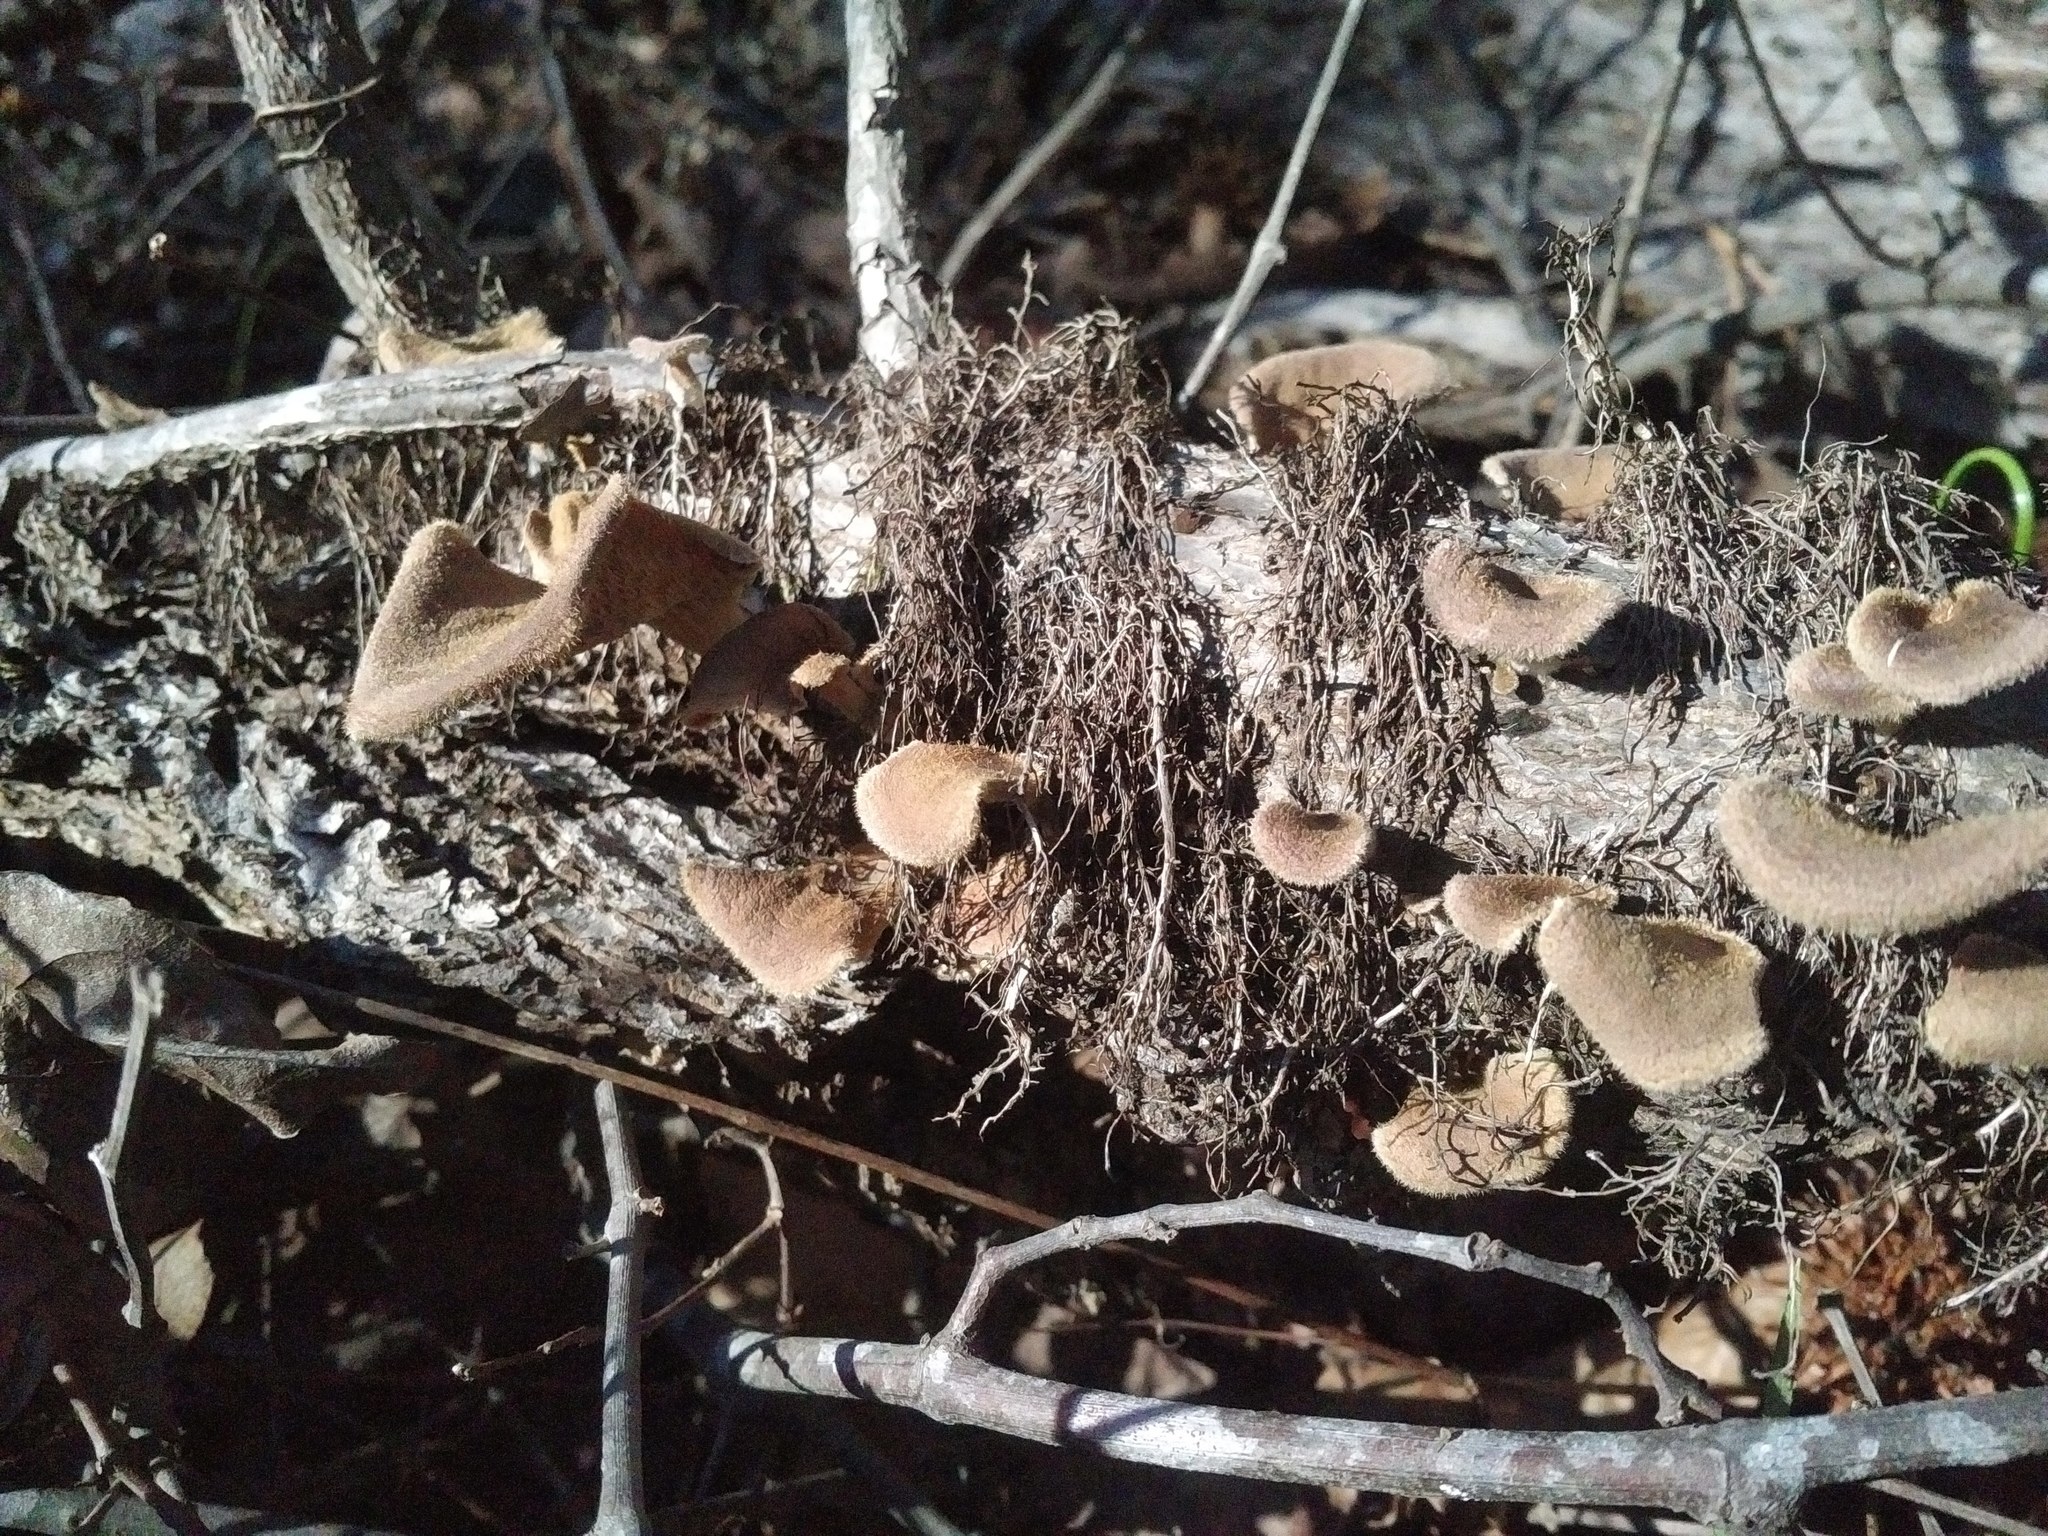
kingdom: Fungi
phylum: Basidiomycota
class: Agaricomycetes
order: Polyporales
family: Panaceae
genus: Panus
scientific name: Panus neostrigosus
